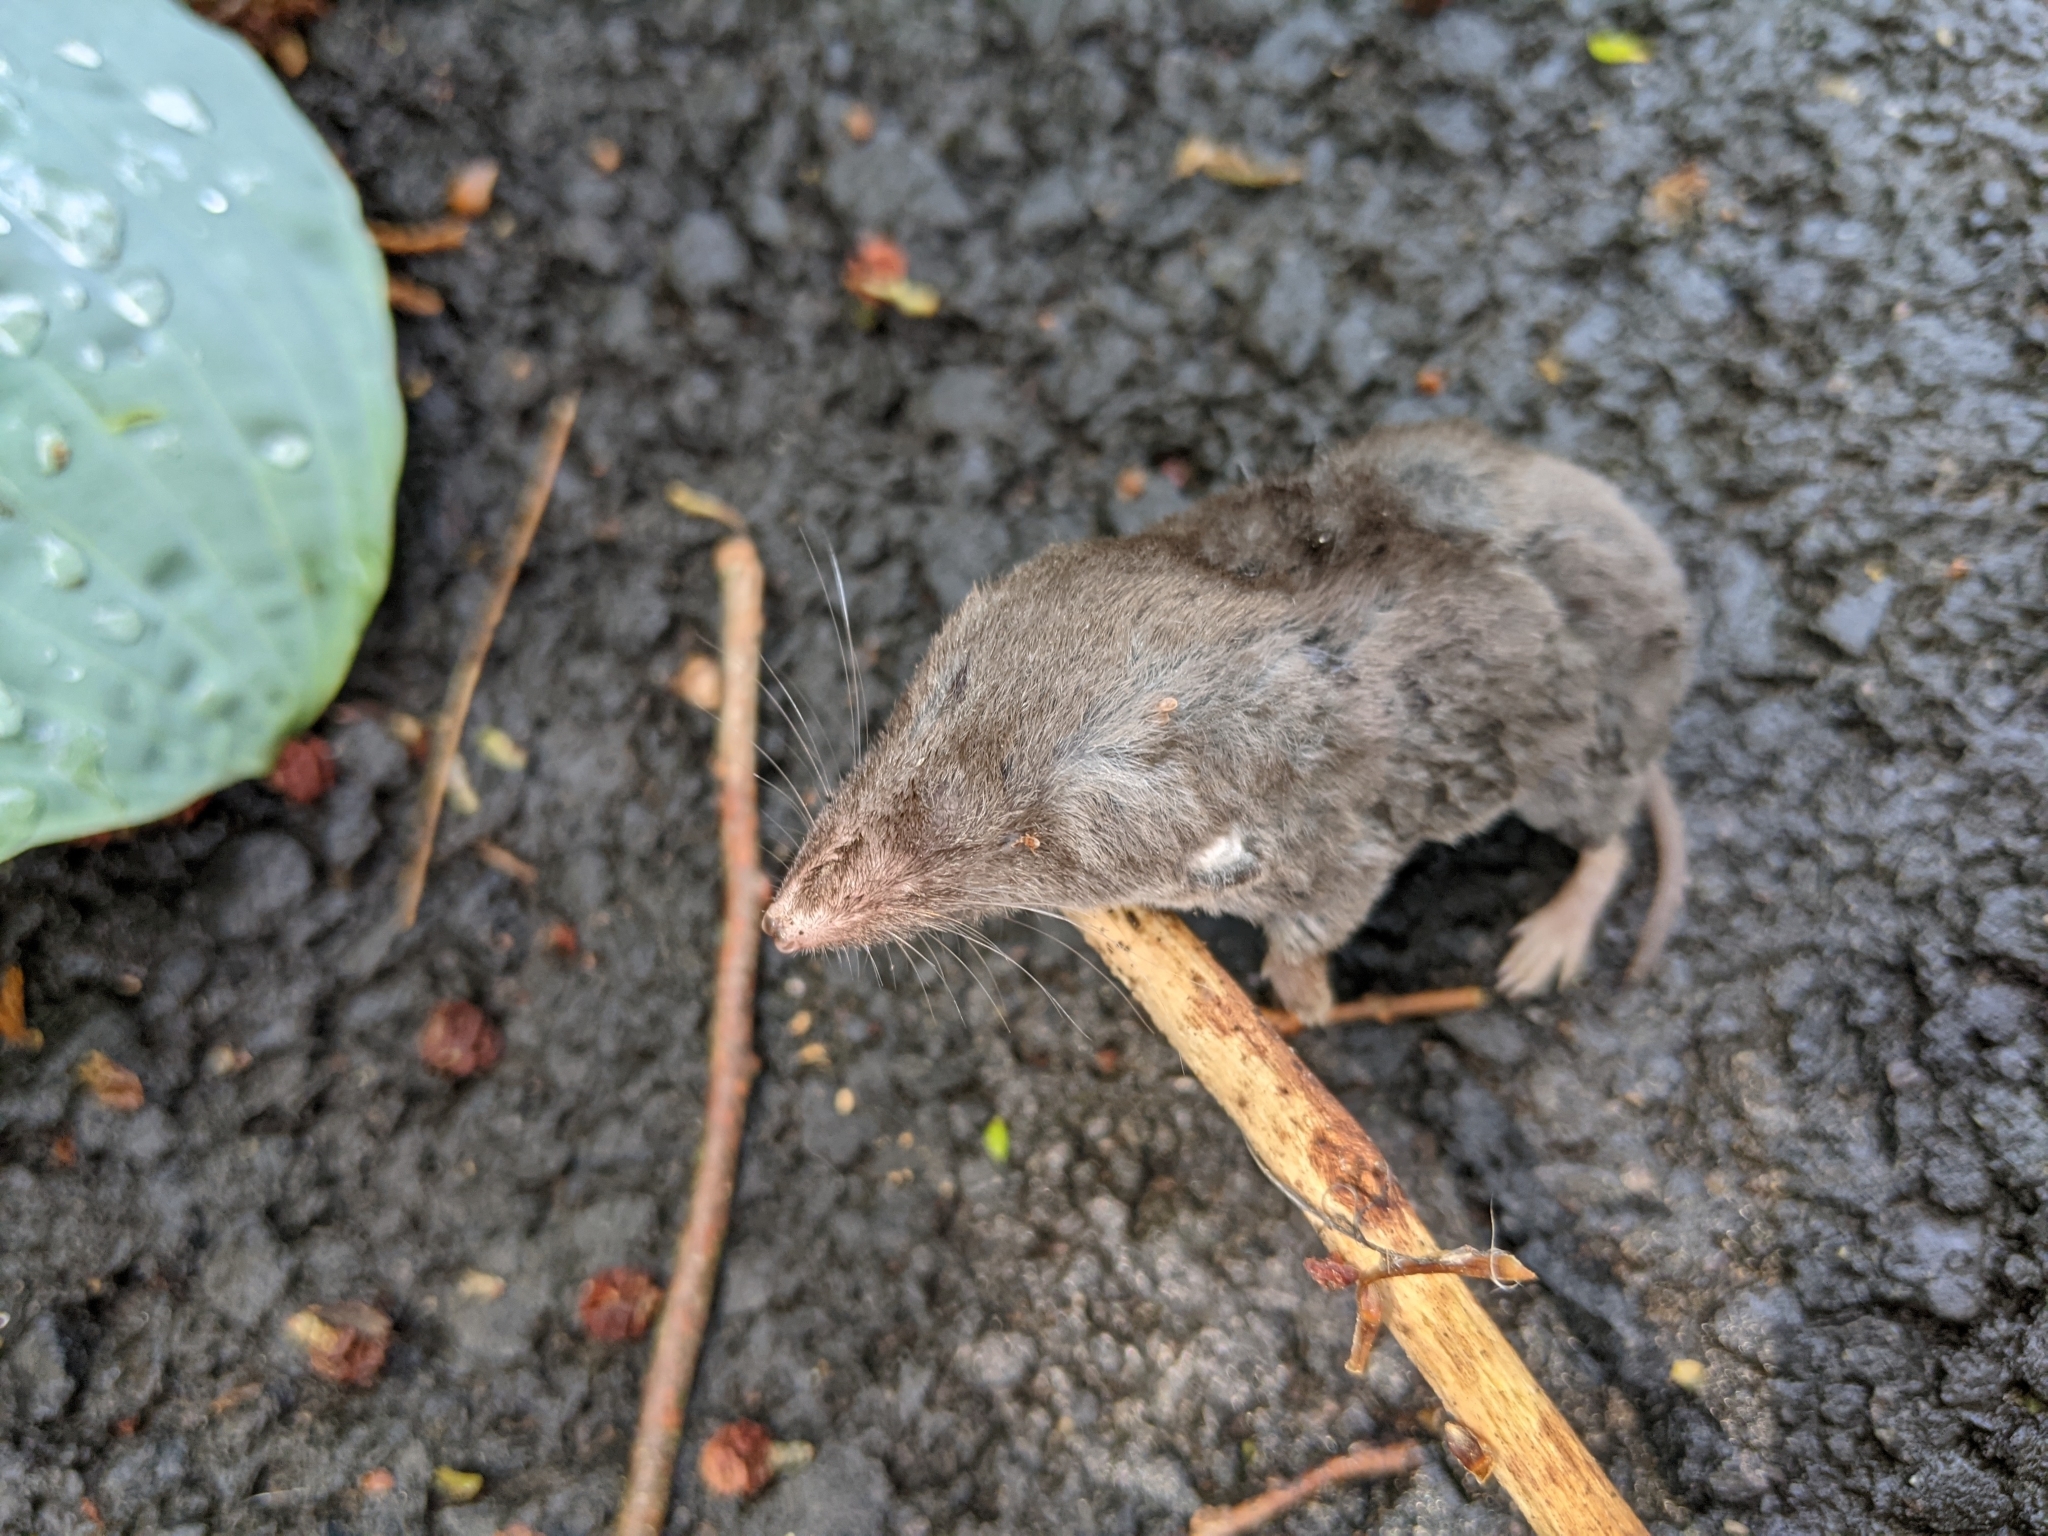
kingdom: Animalia
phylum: Chordata
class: Mammalia
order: Soricomorpha
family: Soricidae
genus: Blarina
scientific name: Blarina brevicauda
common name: Northern short-tailed shrew
